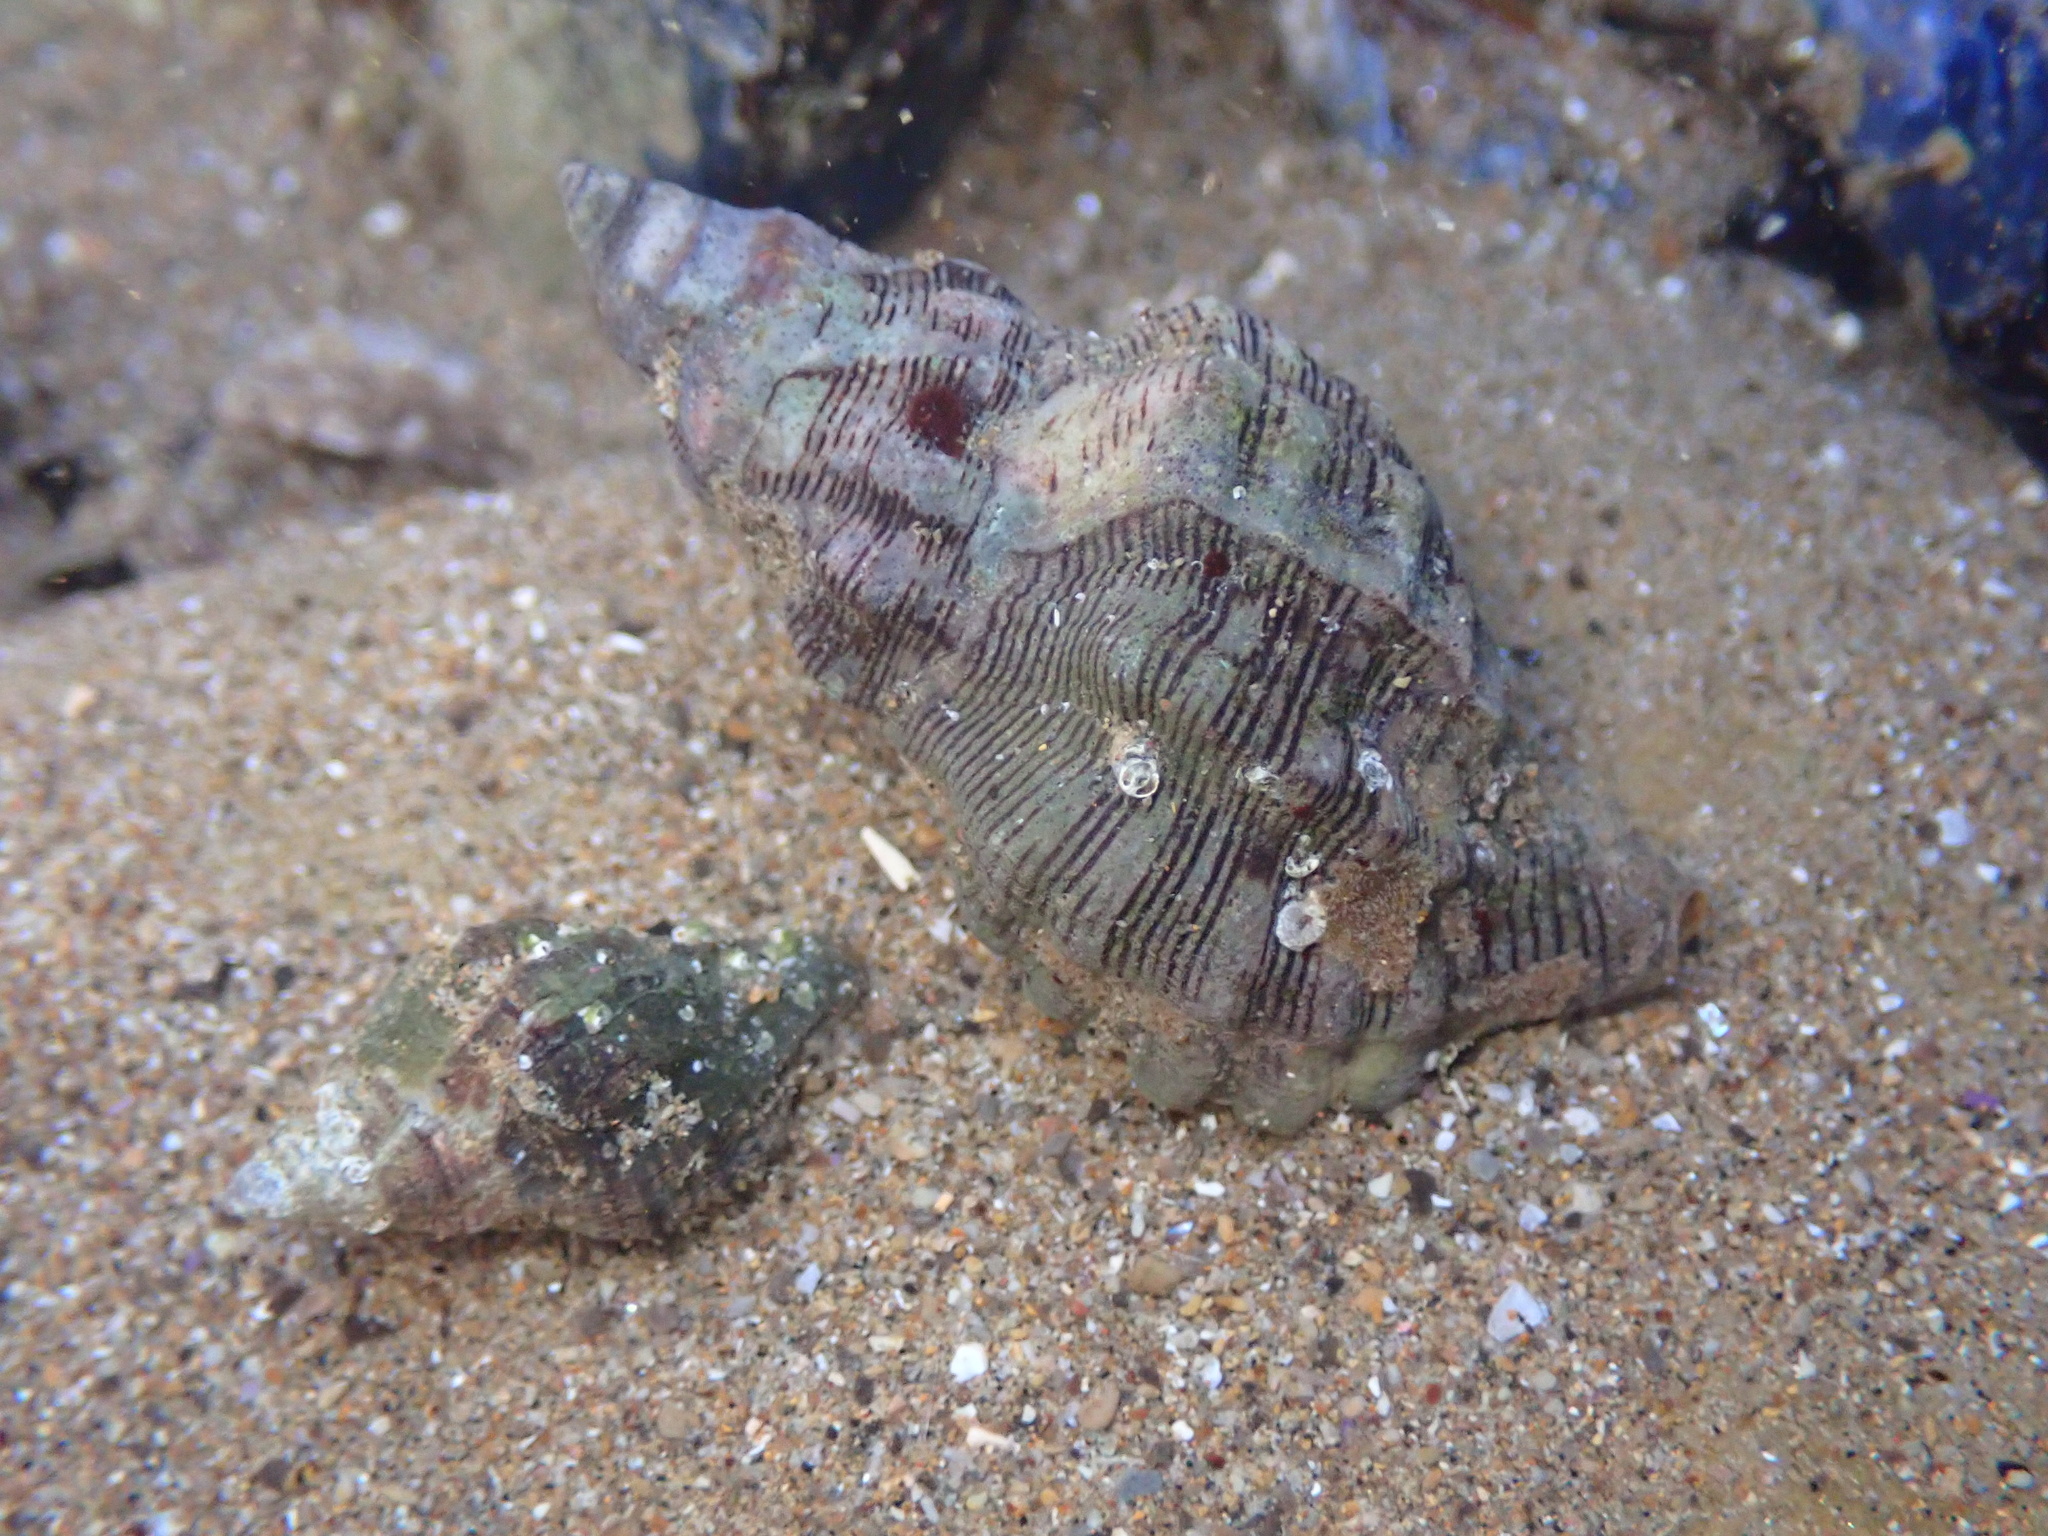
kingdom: Animalia
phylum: Mollusca
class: Gastropoda
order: Neogastropoda
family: Muricidae
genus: Roperia
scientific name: Roperia poulsoni
